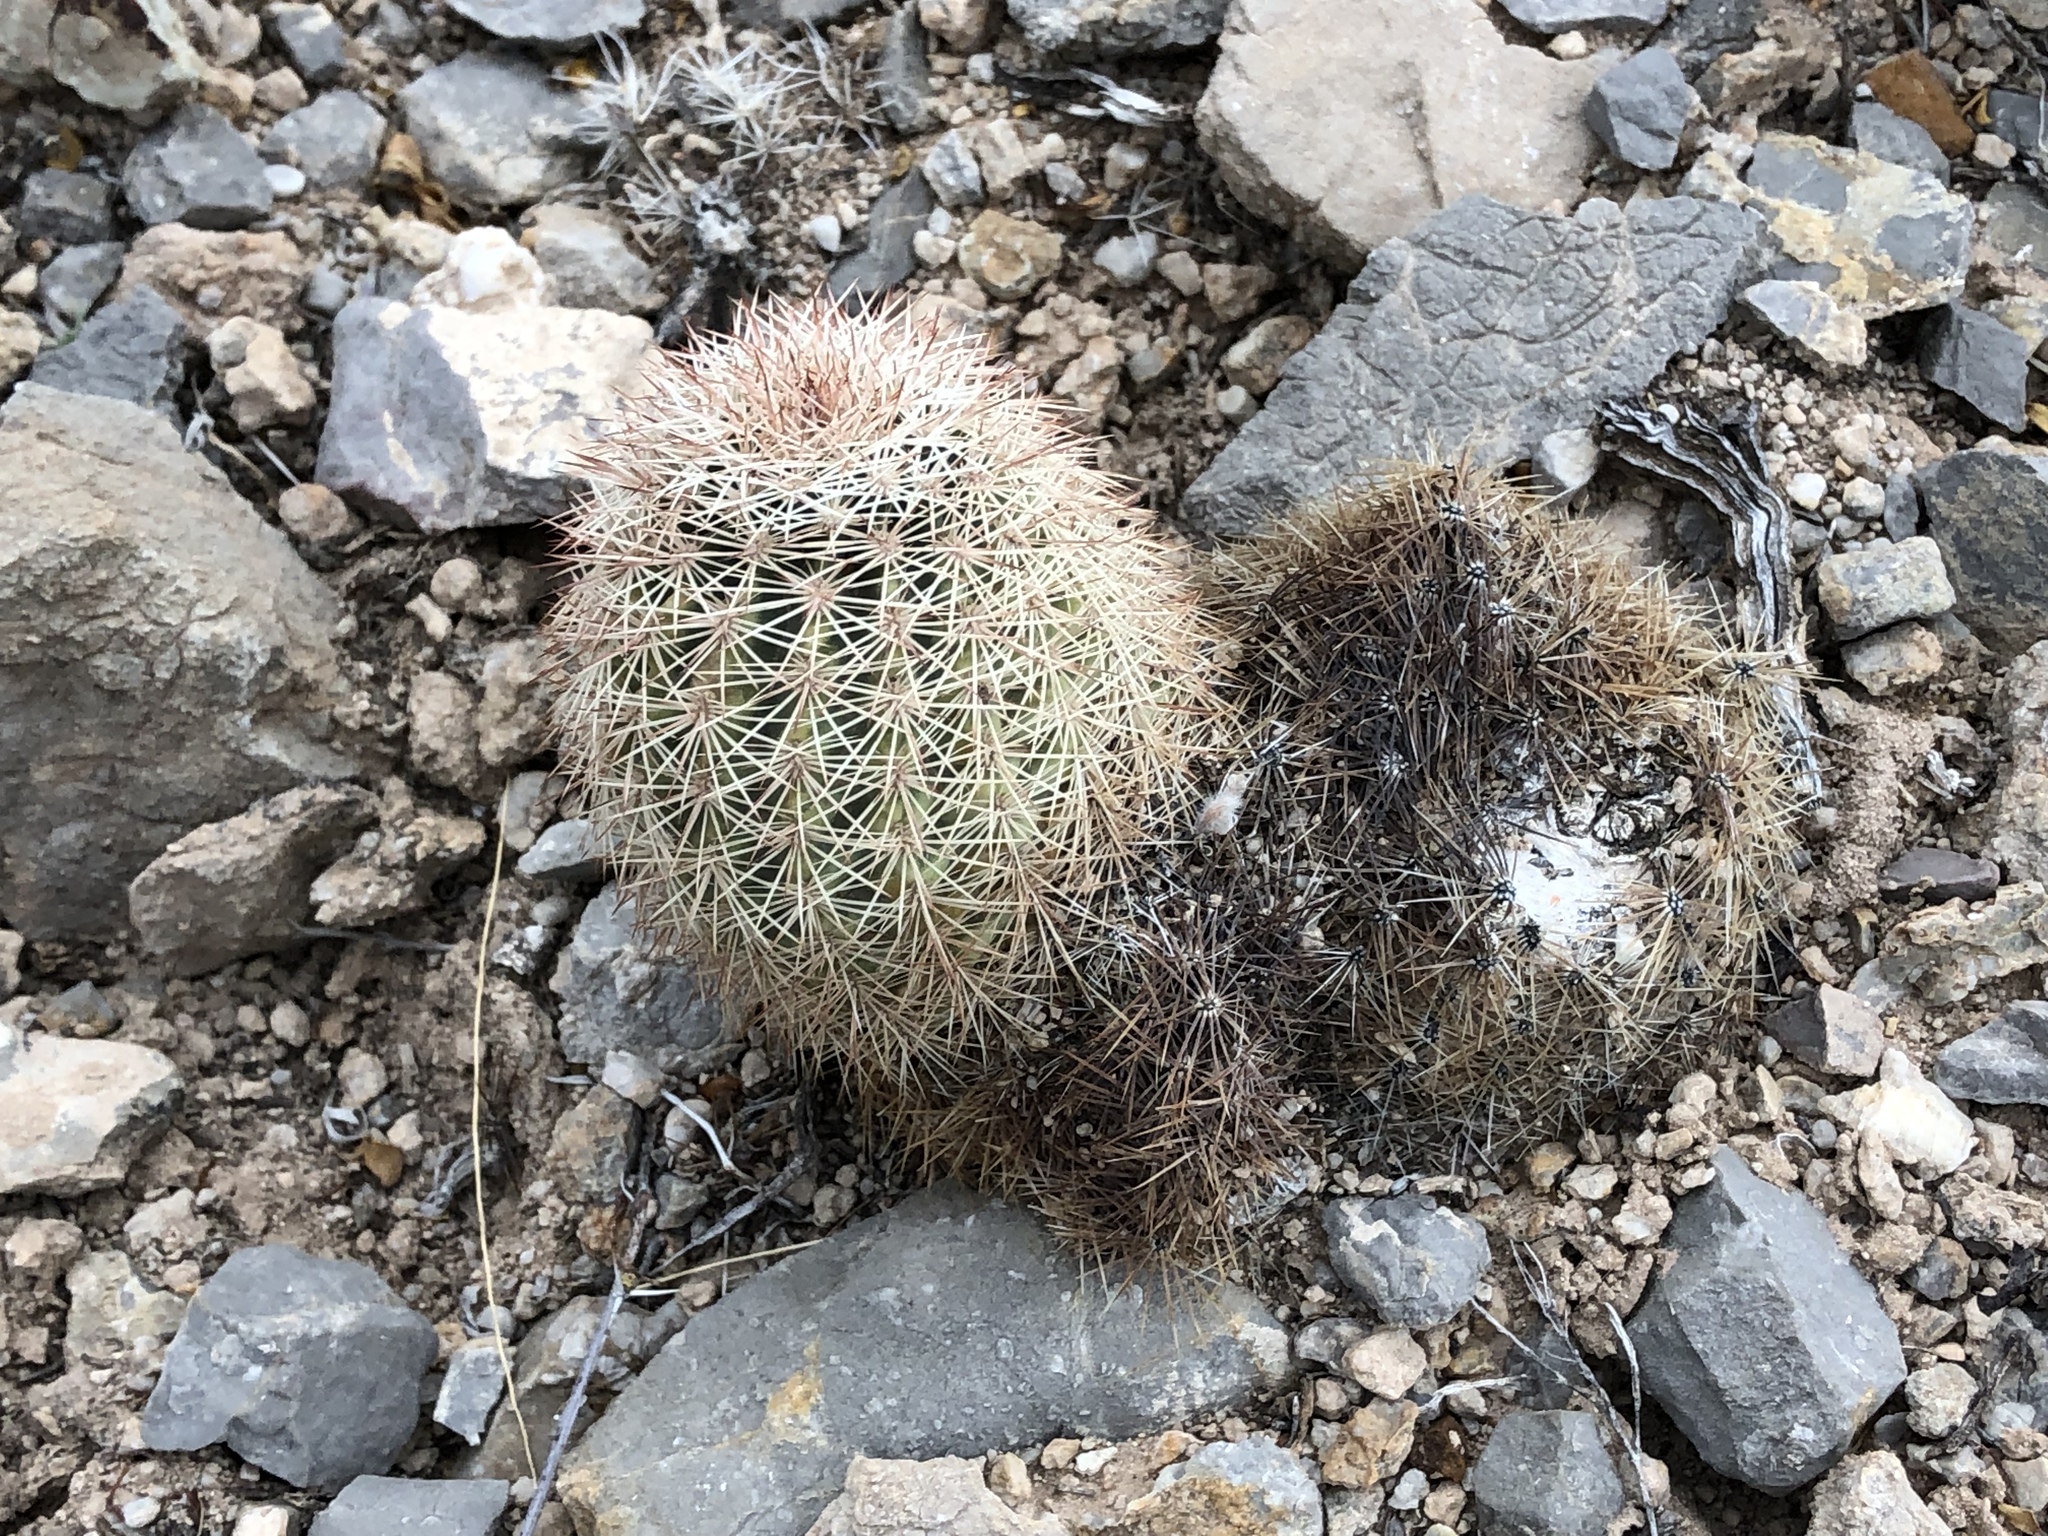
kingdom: Plantae
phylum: Tracheophyta
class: Magnoliopsida
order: Caryophyllales
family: Cactaceae
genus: Echinocereus
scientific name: Echinocereus dasyacanthus
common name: Spiny hedgehog cactus
